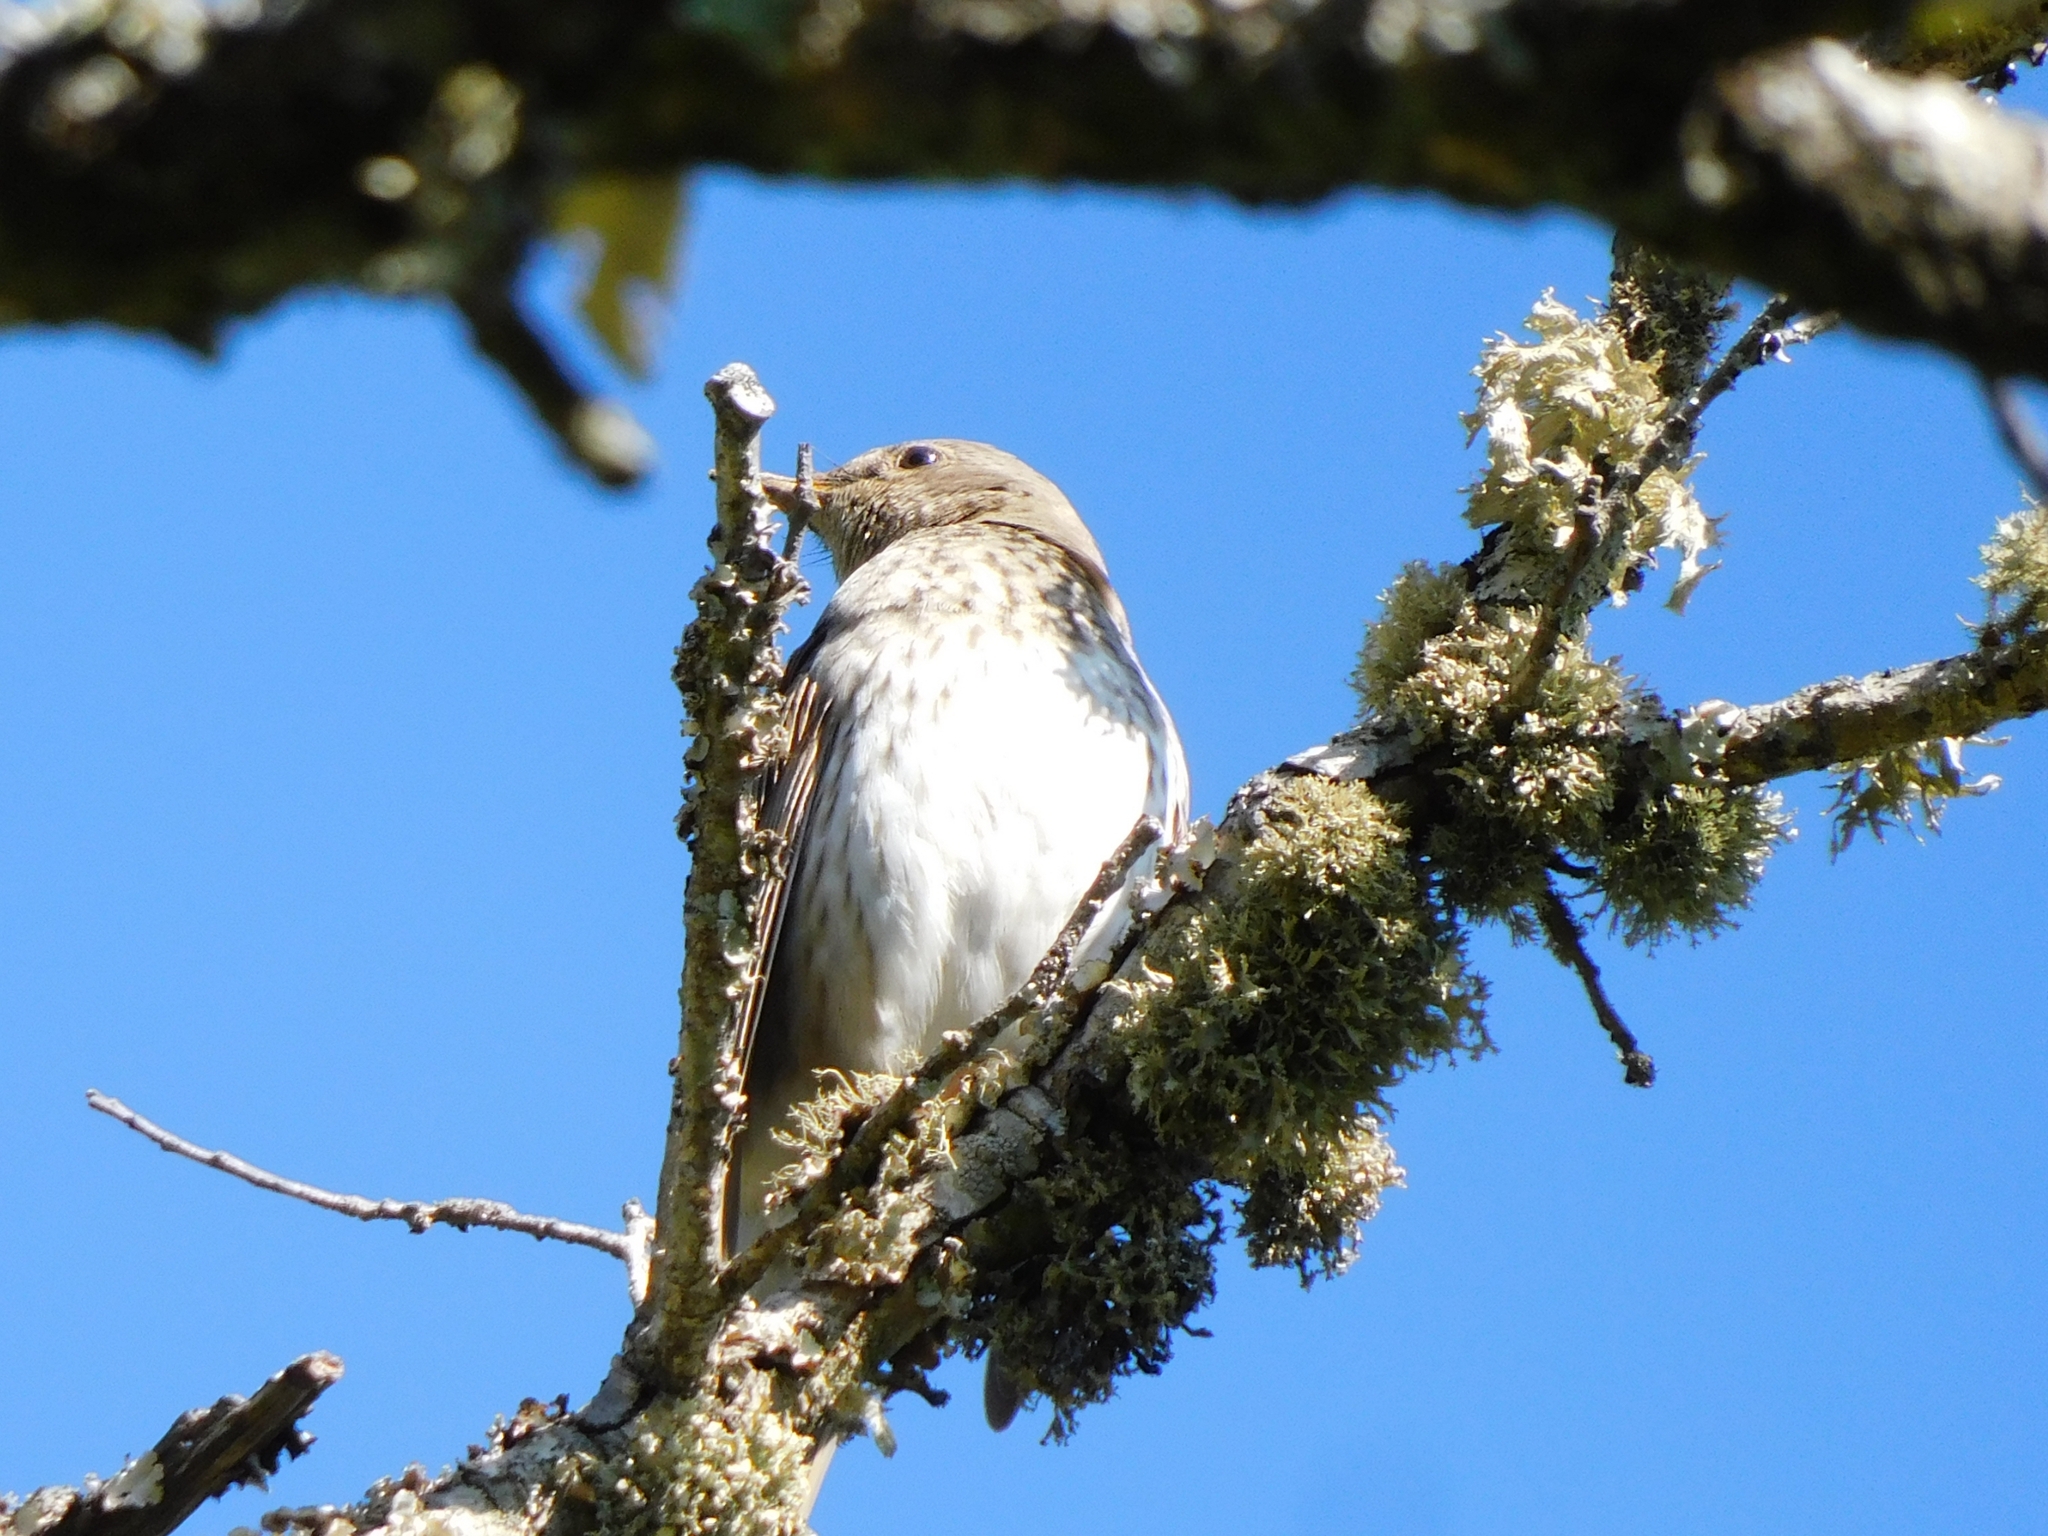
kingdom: Animalia
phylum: Chordata
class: Aves
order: Passeriformes
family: Turdidae
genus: Turdus
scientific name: Turdus atrogularis
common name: Black-throated thrush
